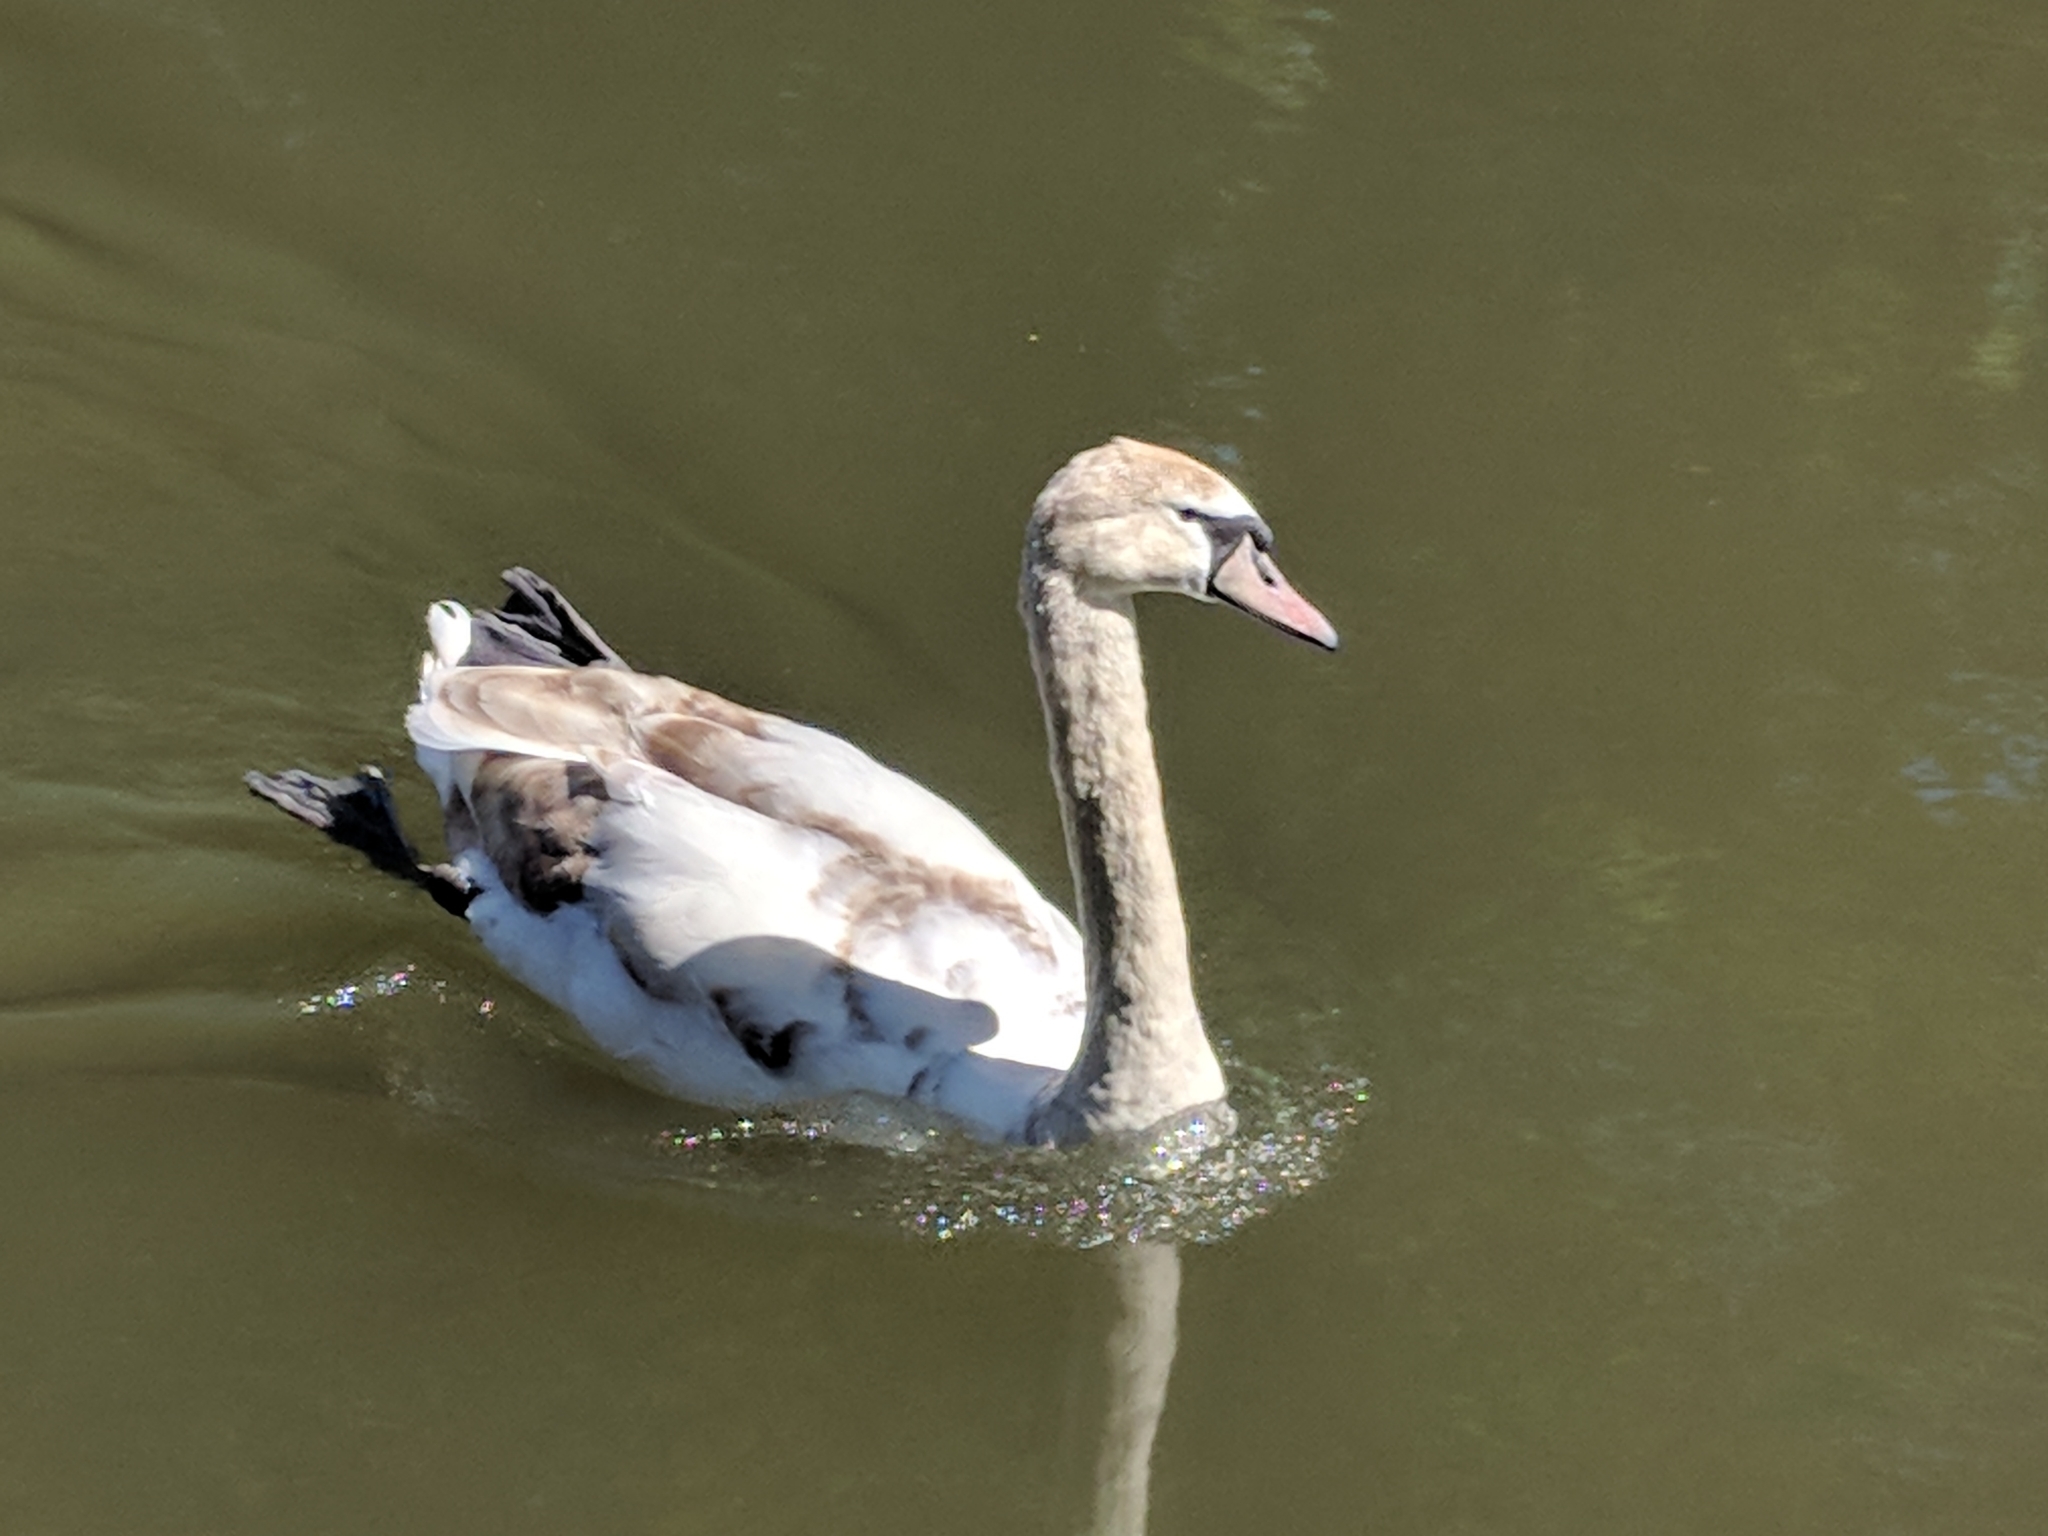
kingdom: Animalia
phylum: Chordata
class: Aves
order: Anseriformes
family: Anatidae
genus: Cygnus
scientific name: Cygnus olor
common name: Mute swan
